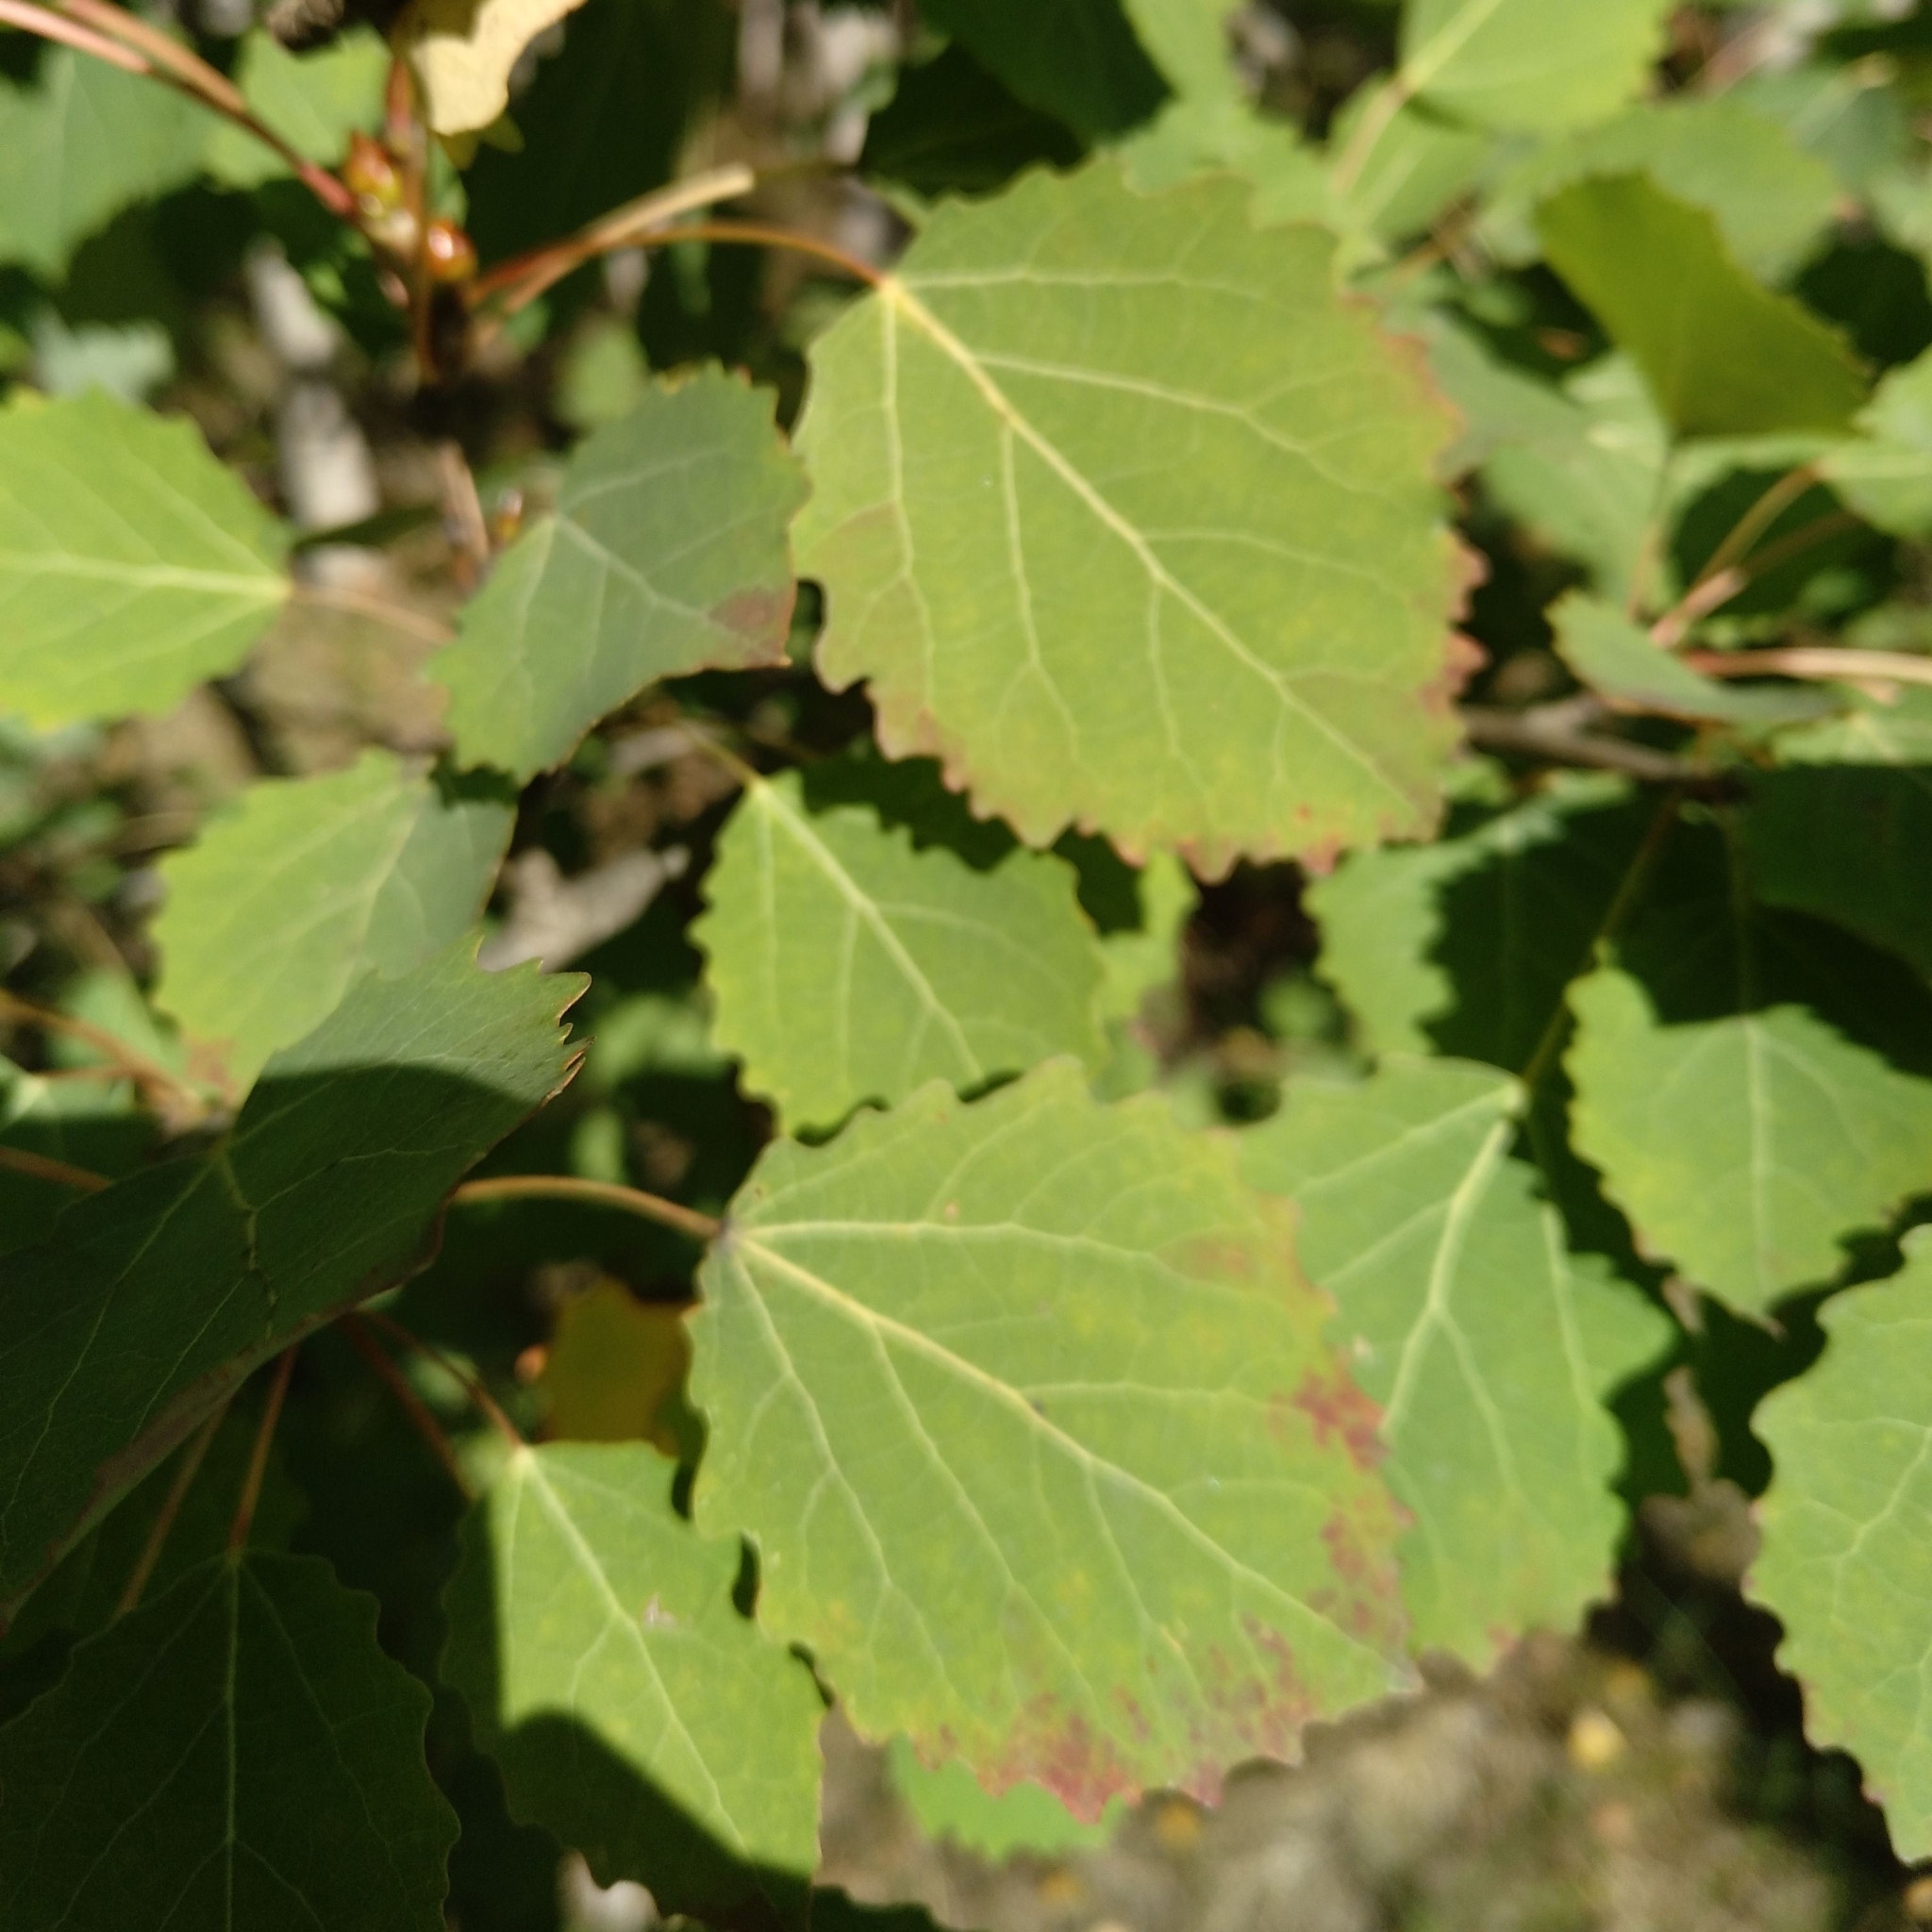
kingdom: Plantae
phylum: Tracheophyta
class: Magnoliopsida
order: Malpighiales
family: Salicaceae
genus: Populus
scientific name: Populus tremula
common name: European aspen
